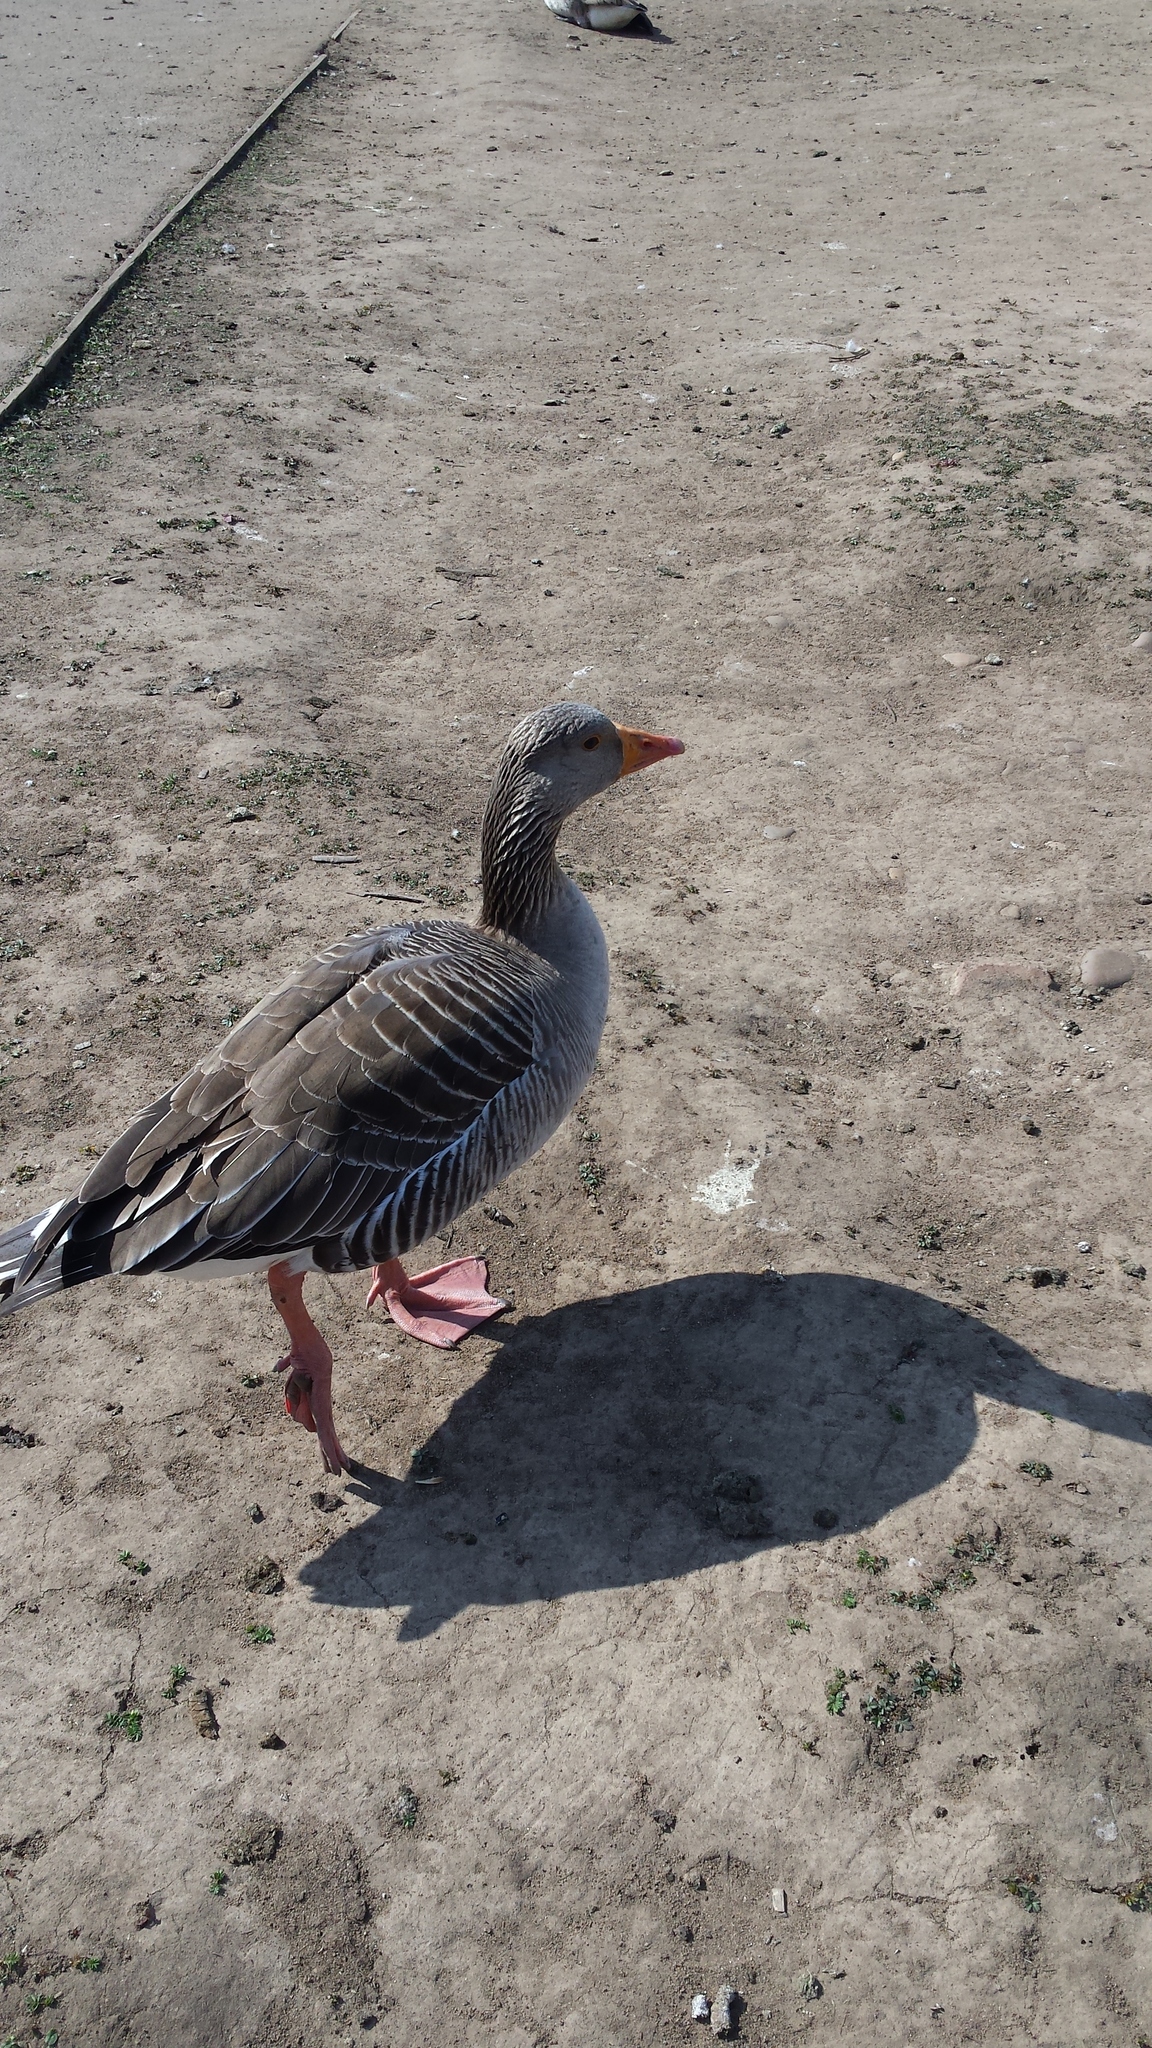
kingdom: Animalia
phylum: Chordata
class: Aves
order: Anseriformes
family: Anatidae
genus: Anser
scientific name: Anser anser
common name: Greylag goose
